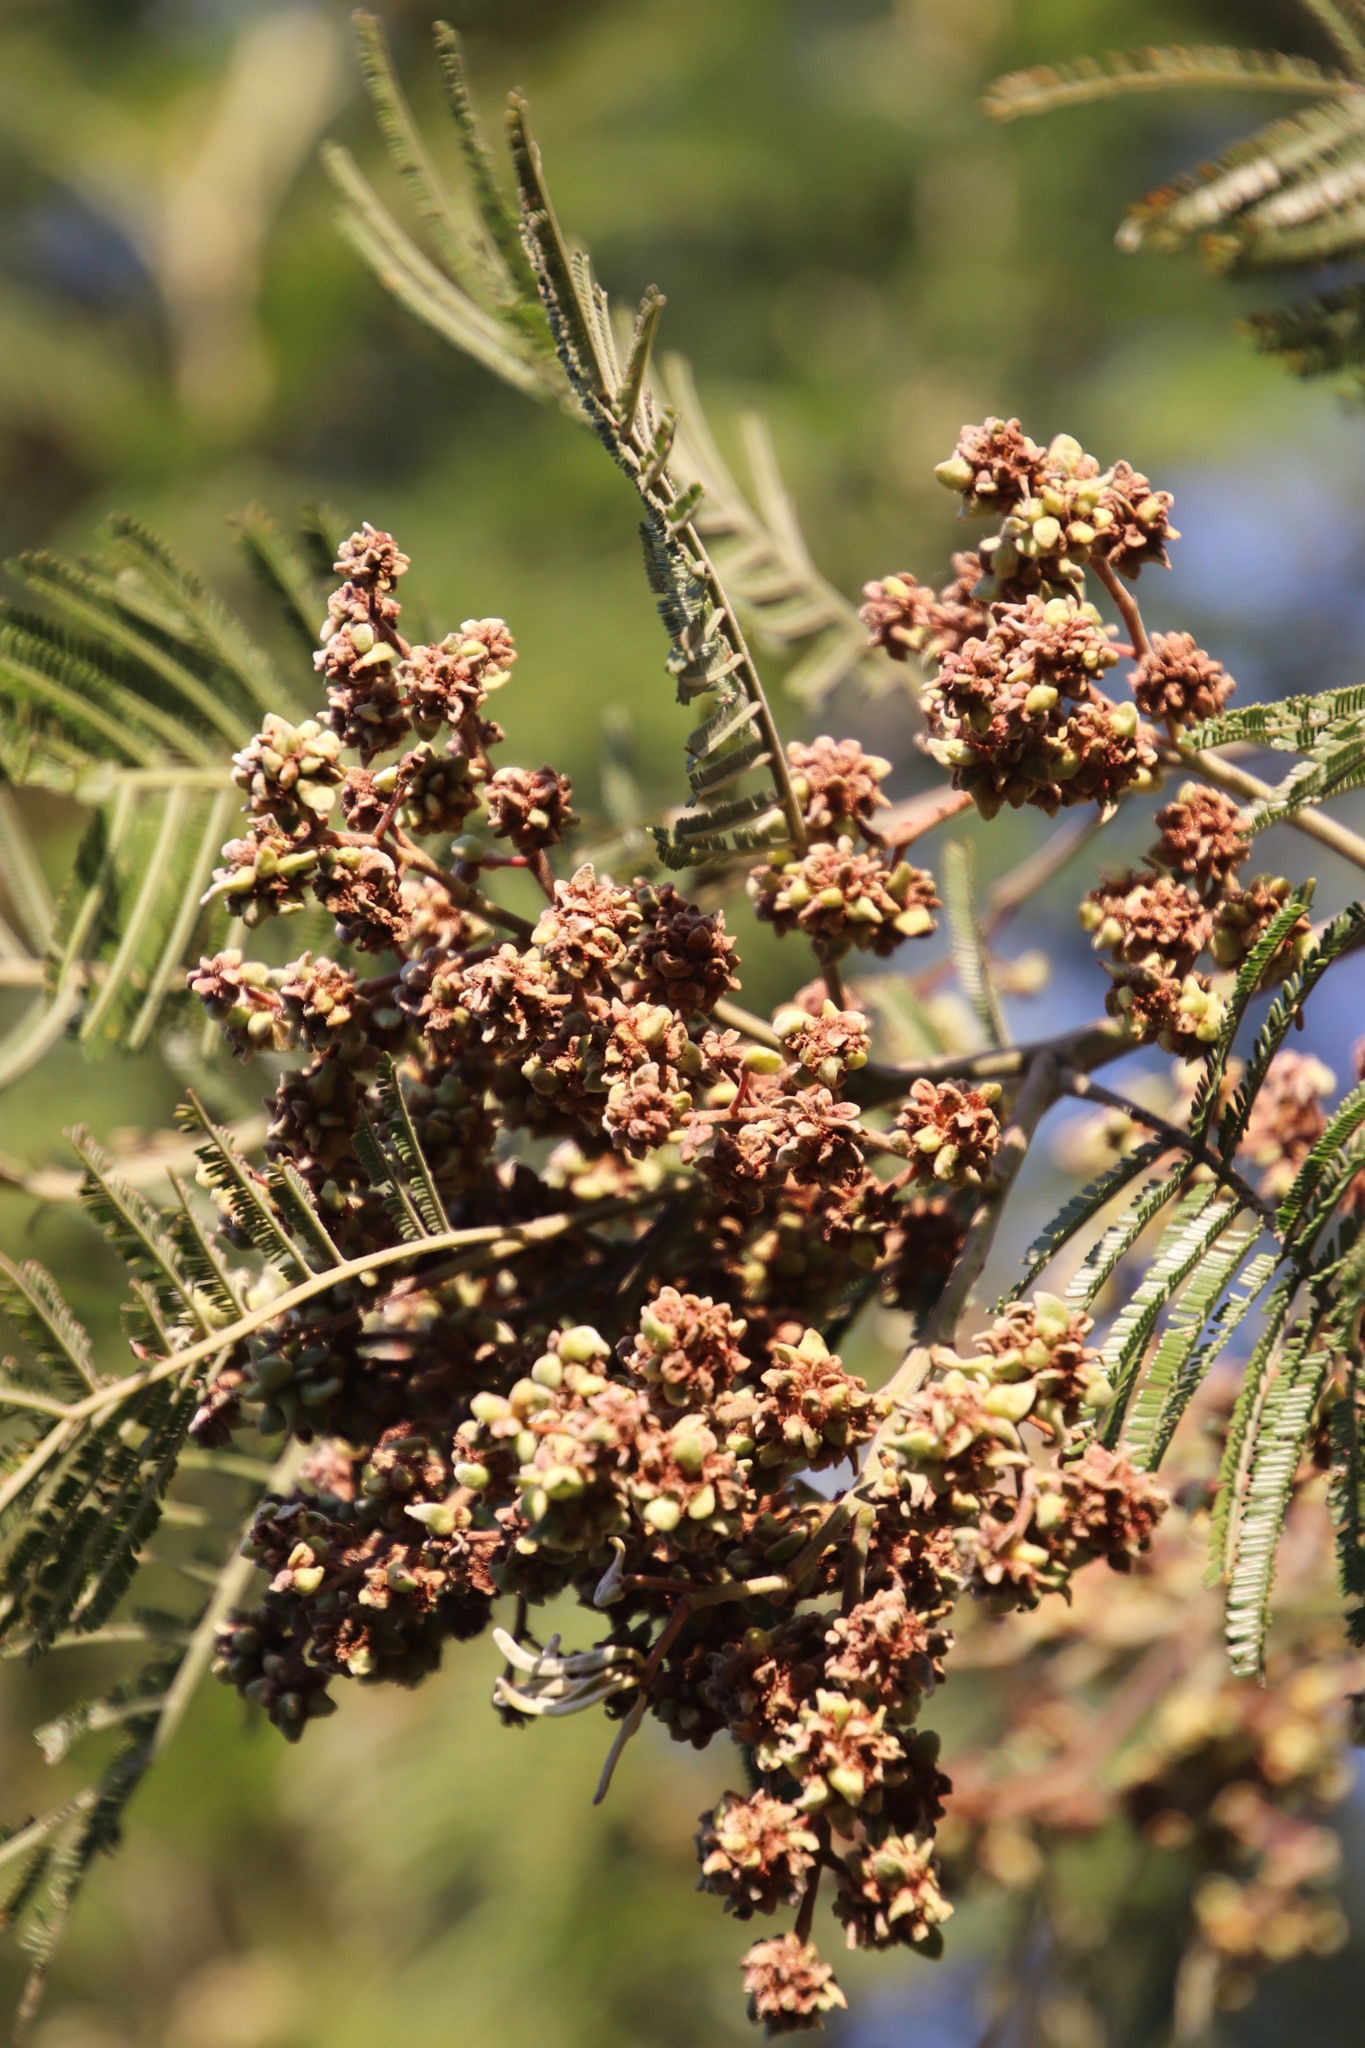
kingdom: Plantae
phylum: Tracheophyta
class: Magnoliopsida
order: Fabales
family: Fabaceae
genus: Acacia
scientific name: Acacia mearnsii
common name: Black wattle
